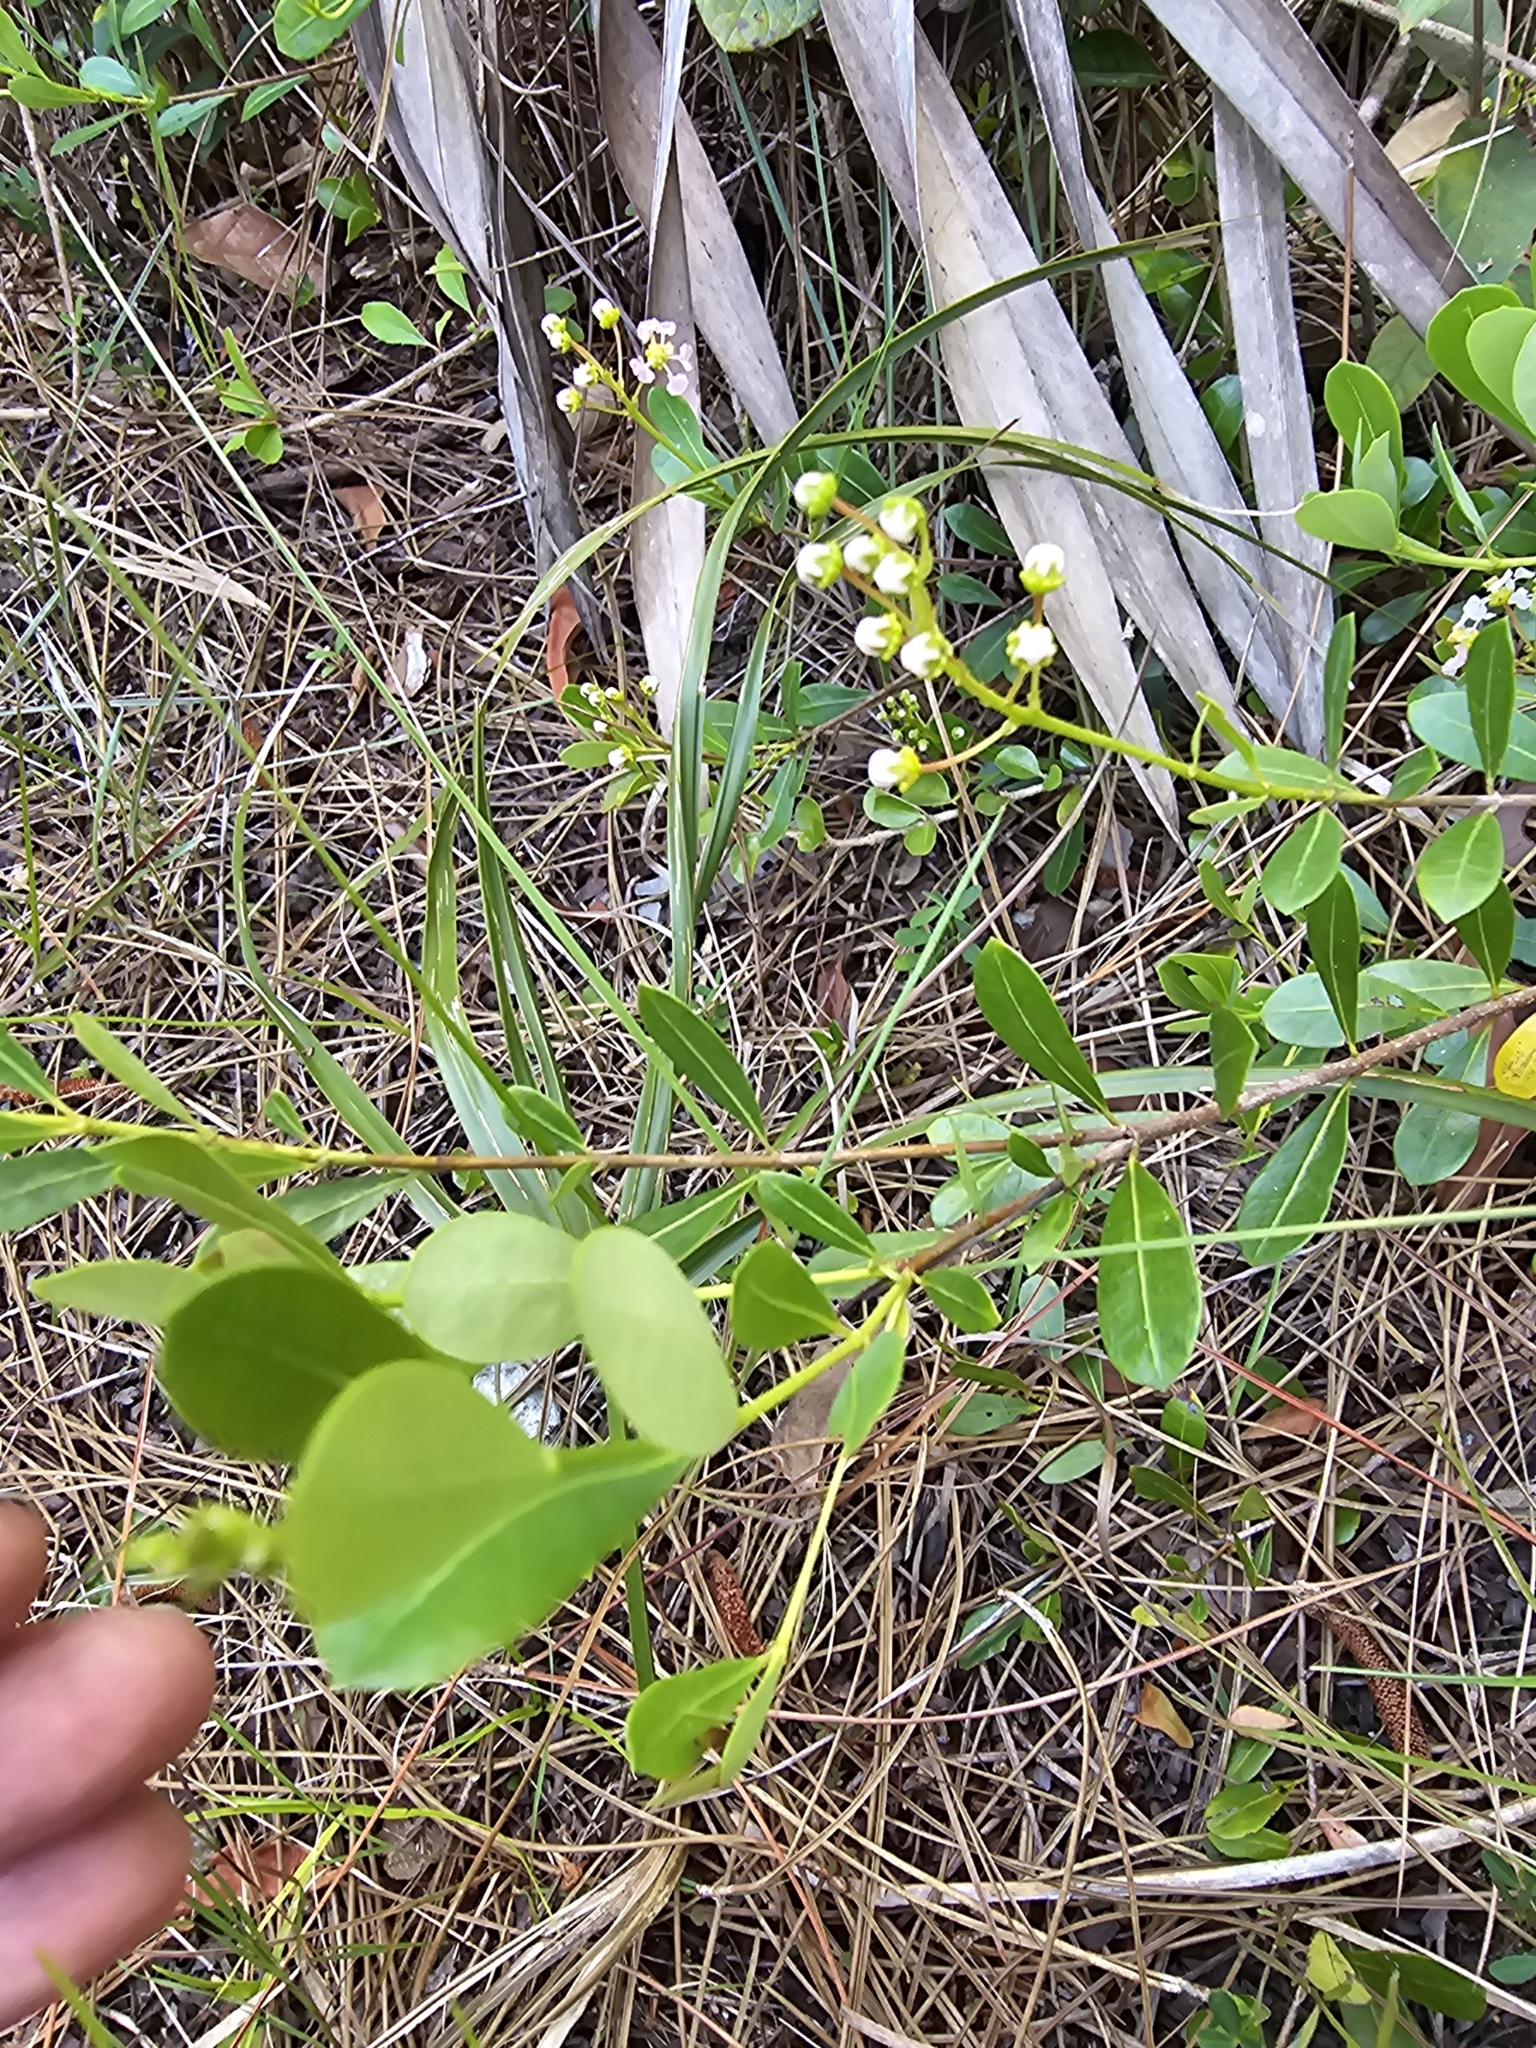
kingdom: Plantae
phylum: Tracheophyta
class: Magnoliopsida
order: Malpighiales
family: Malpighiaceae
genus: Byrsonima
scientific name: Byrsonima lucida
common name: Clam-cherry
